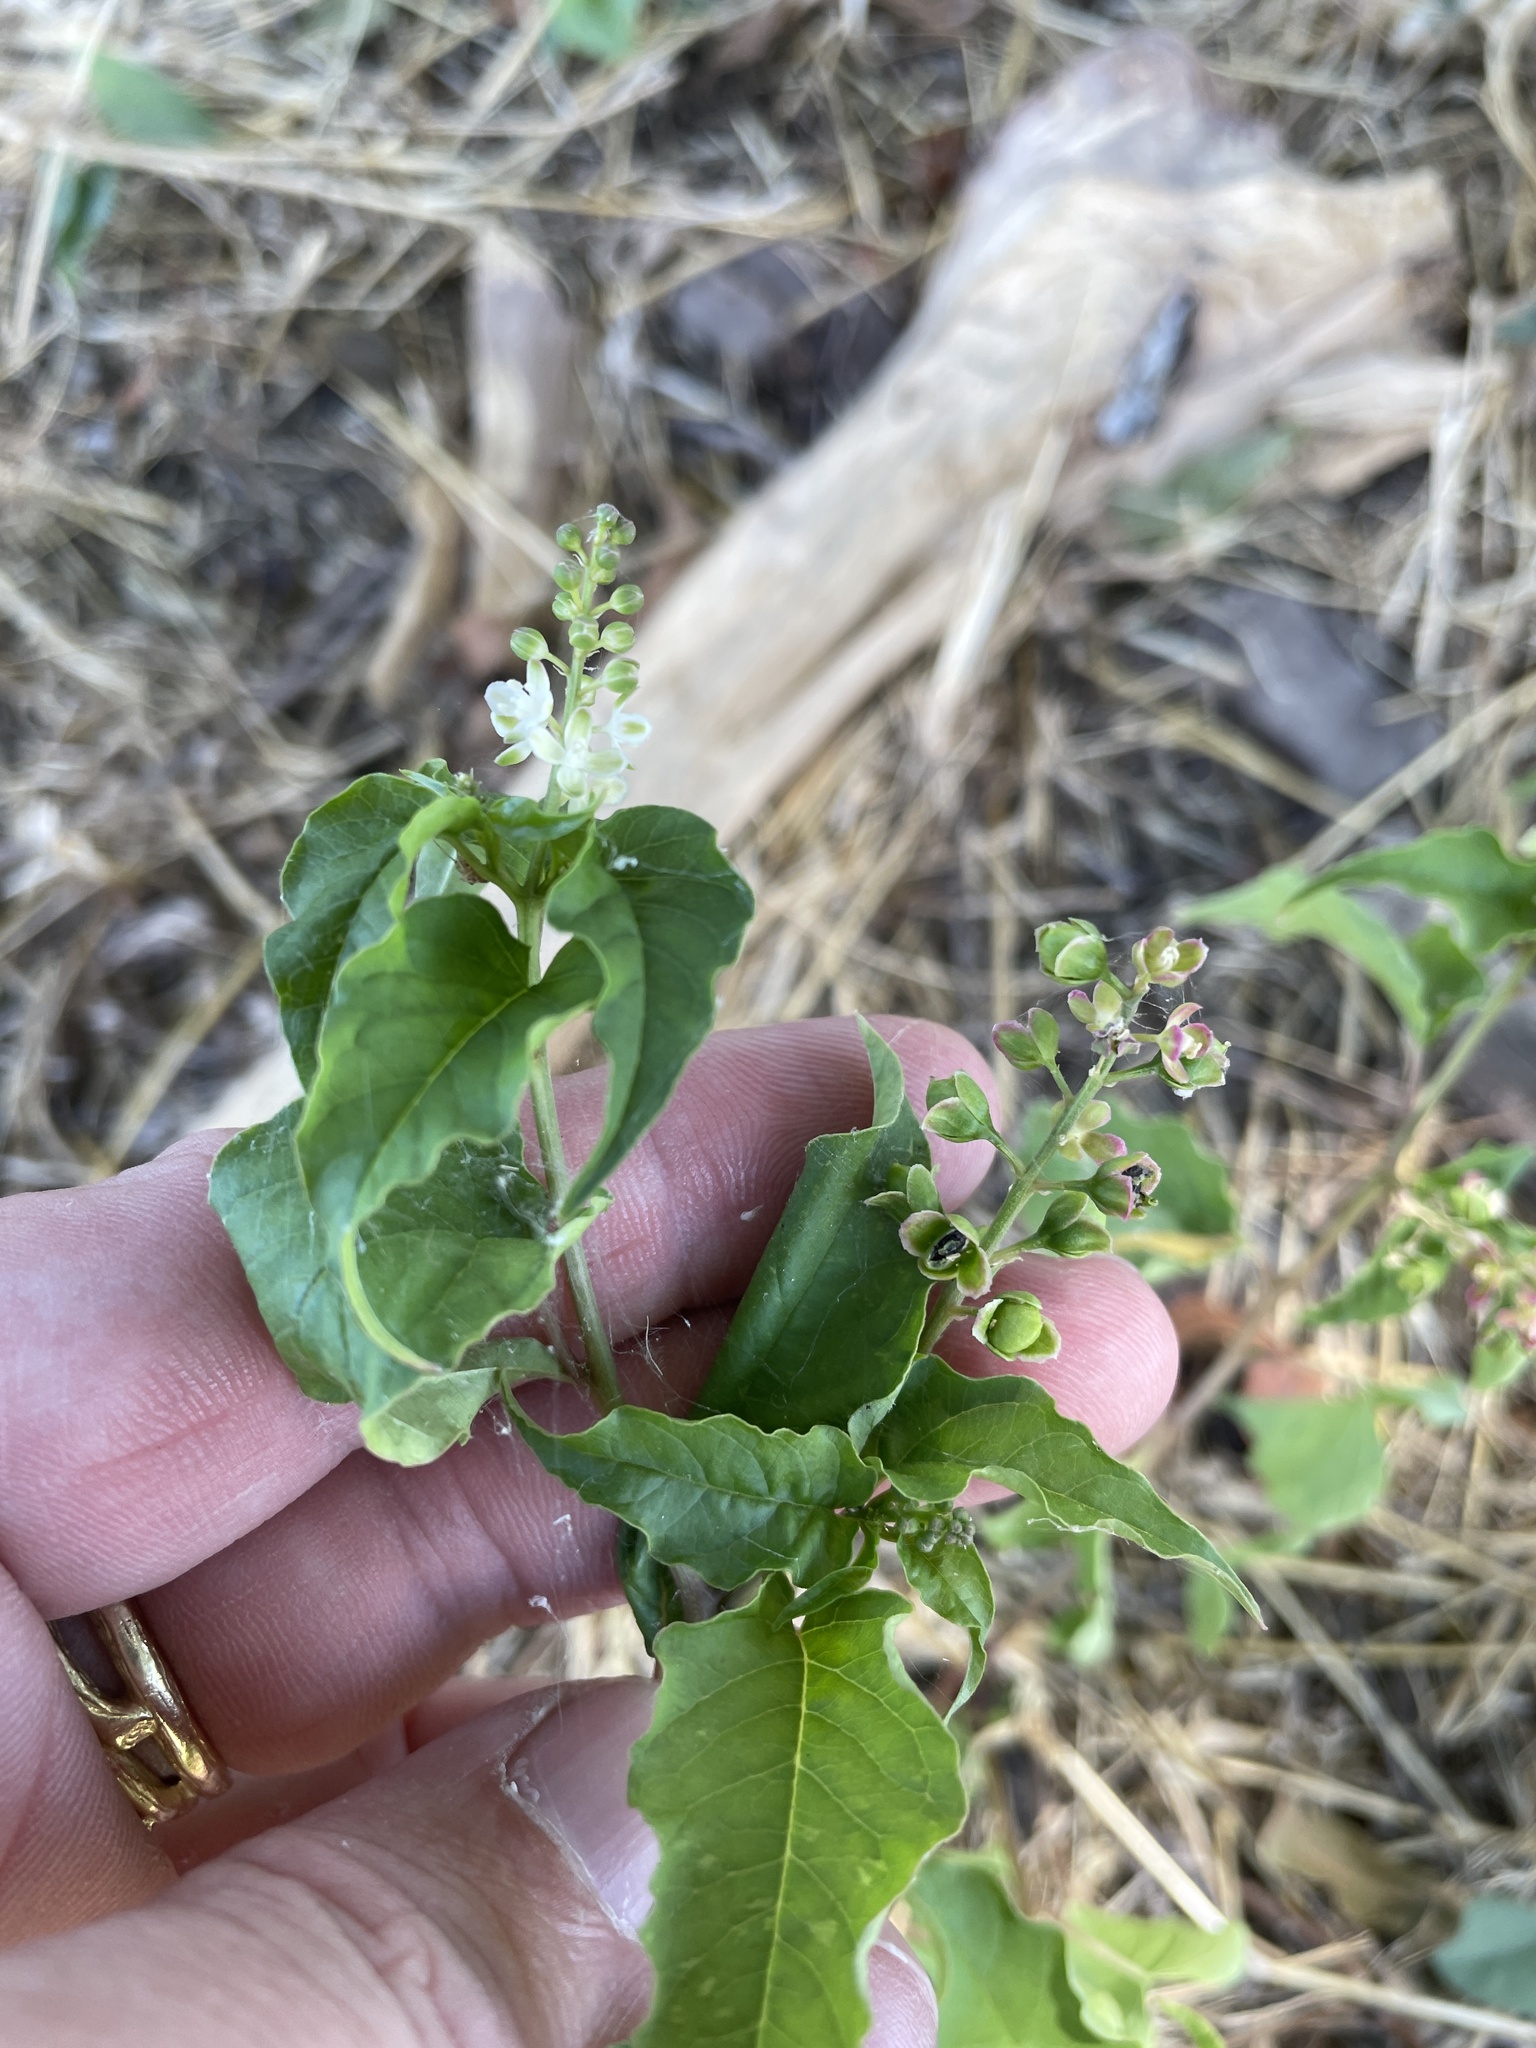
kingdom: Plantae
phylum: Tracheophyta
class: Magnoliopsida
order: Caryophyllales
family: Phytolaccaceae
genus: Rivina
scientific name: Rivina humilis
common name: Rougeplant
